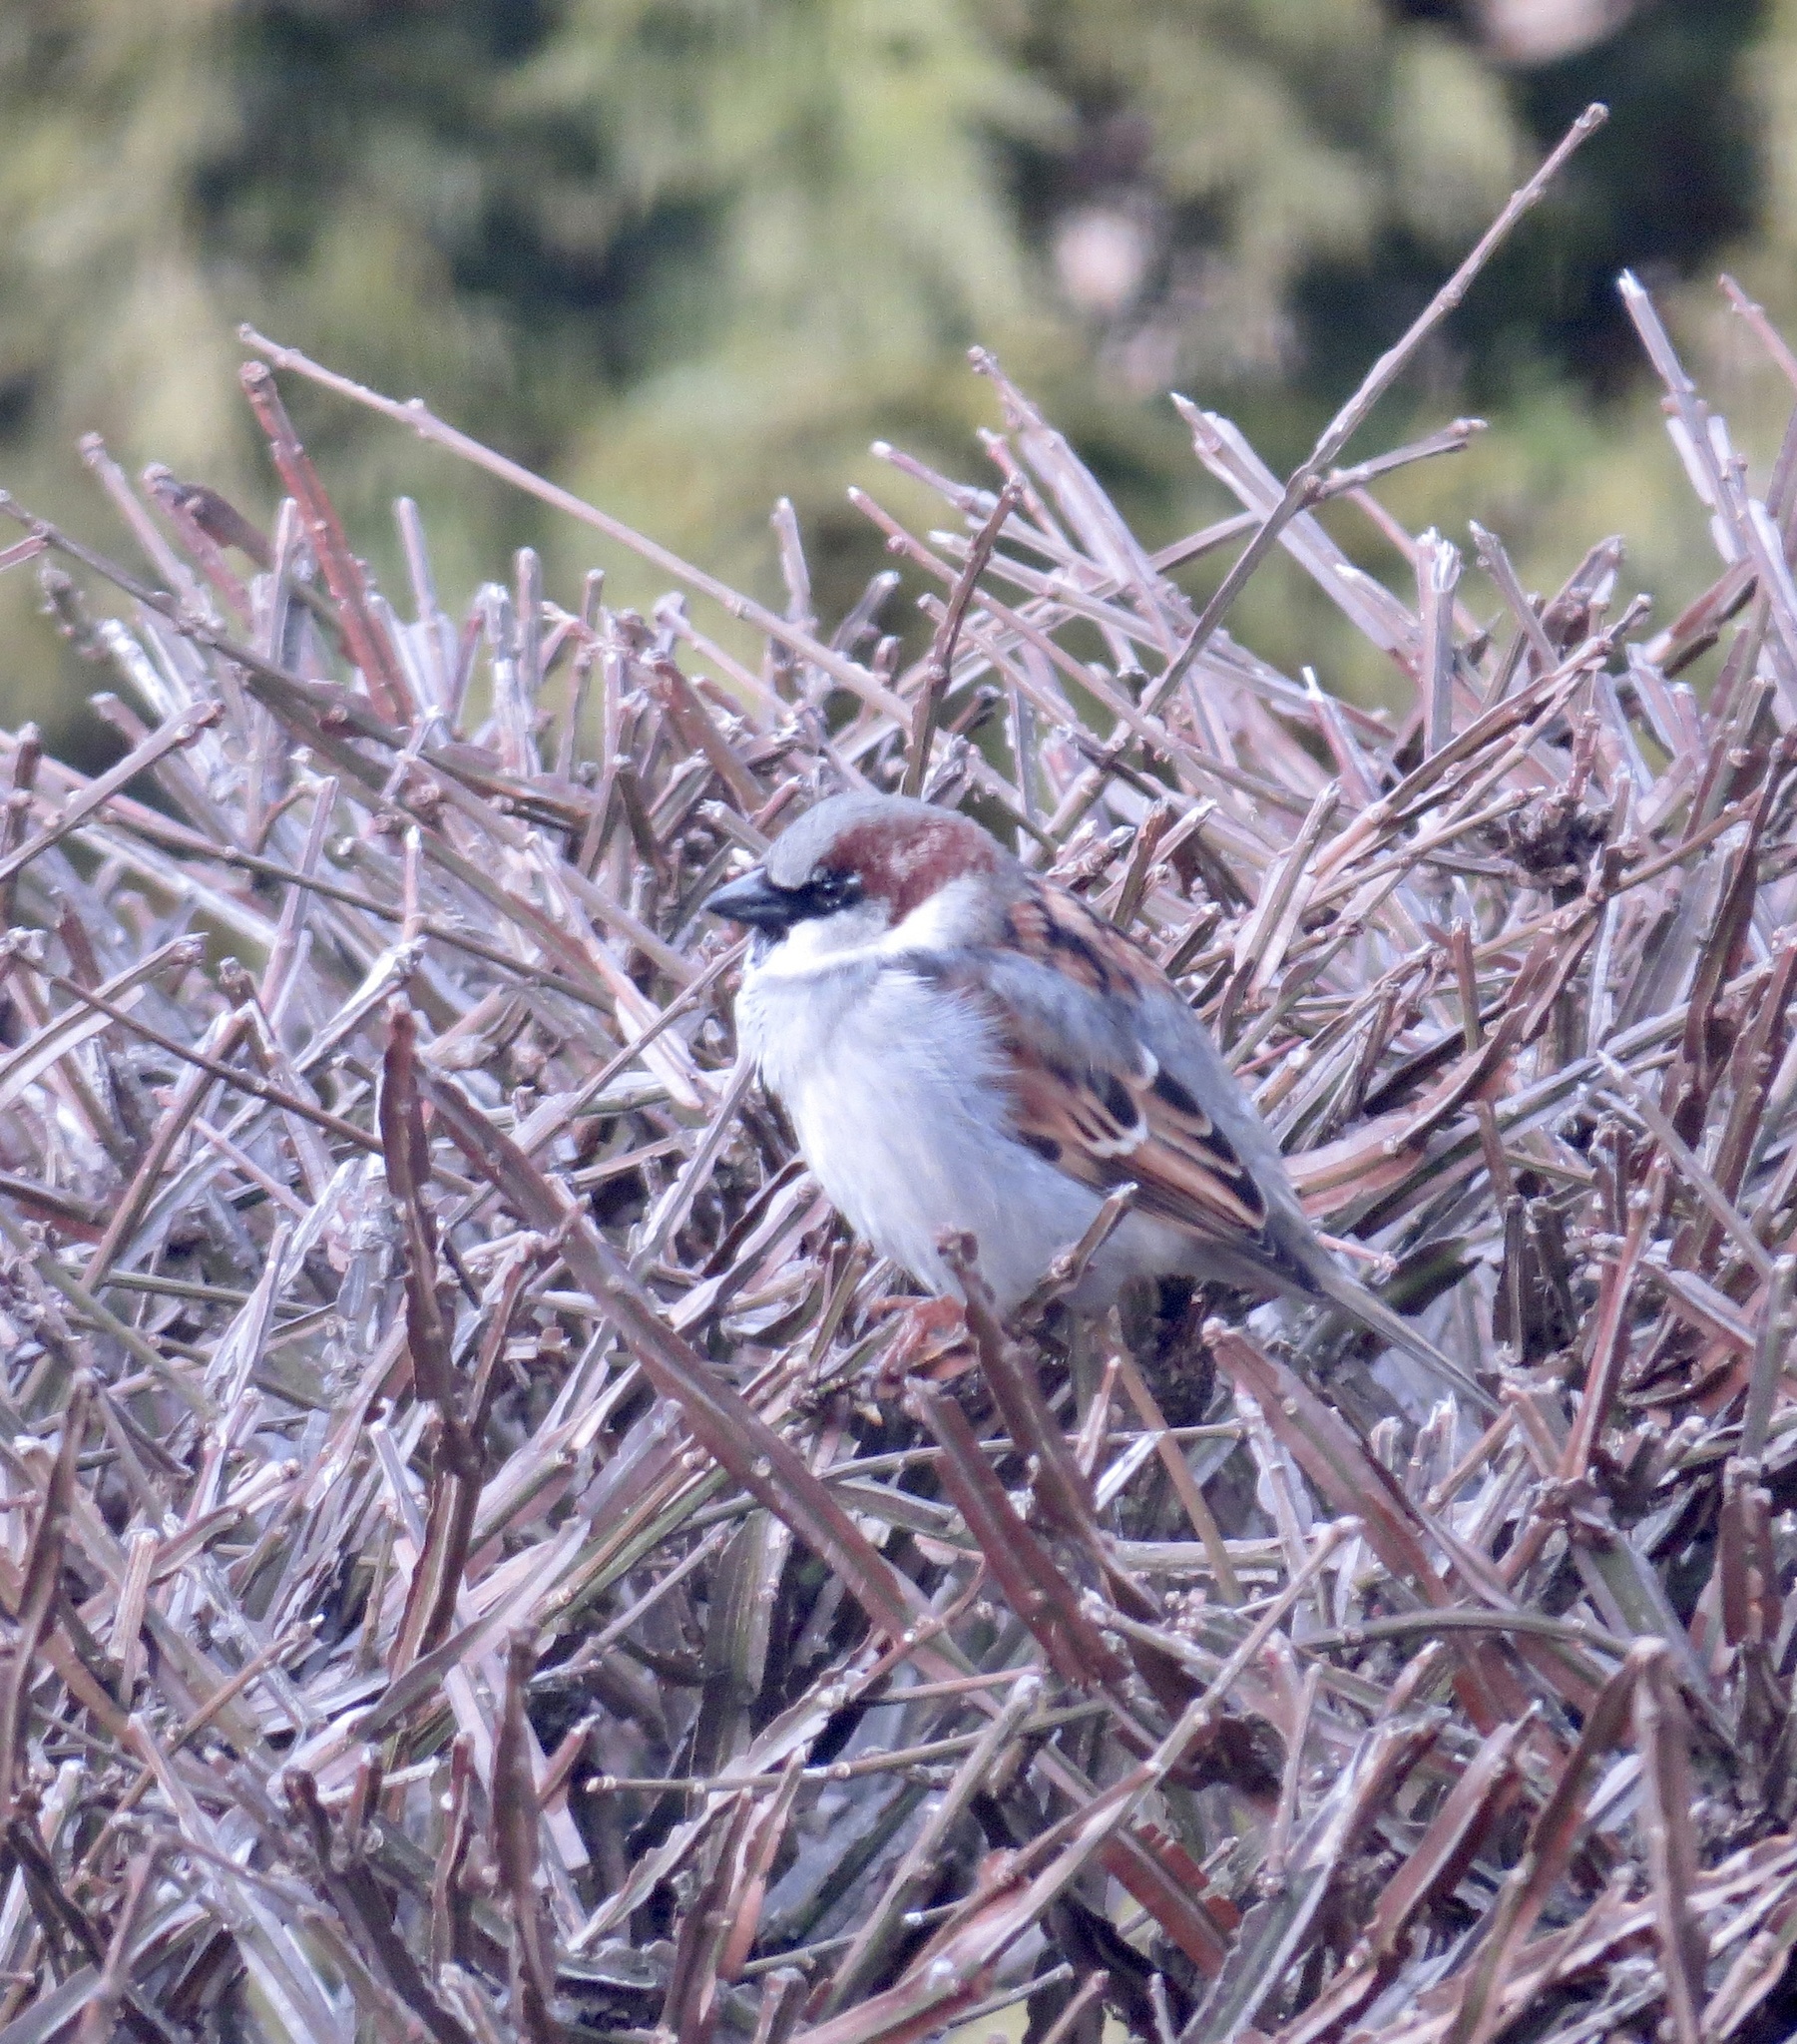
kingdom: Animalia
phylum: Chordata
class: Aves
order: Passeriformes
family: Passeridae
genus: Passer
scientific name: Passer domesticus
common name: House sparrow
